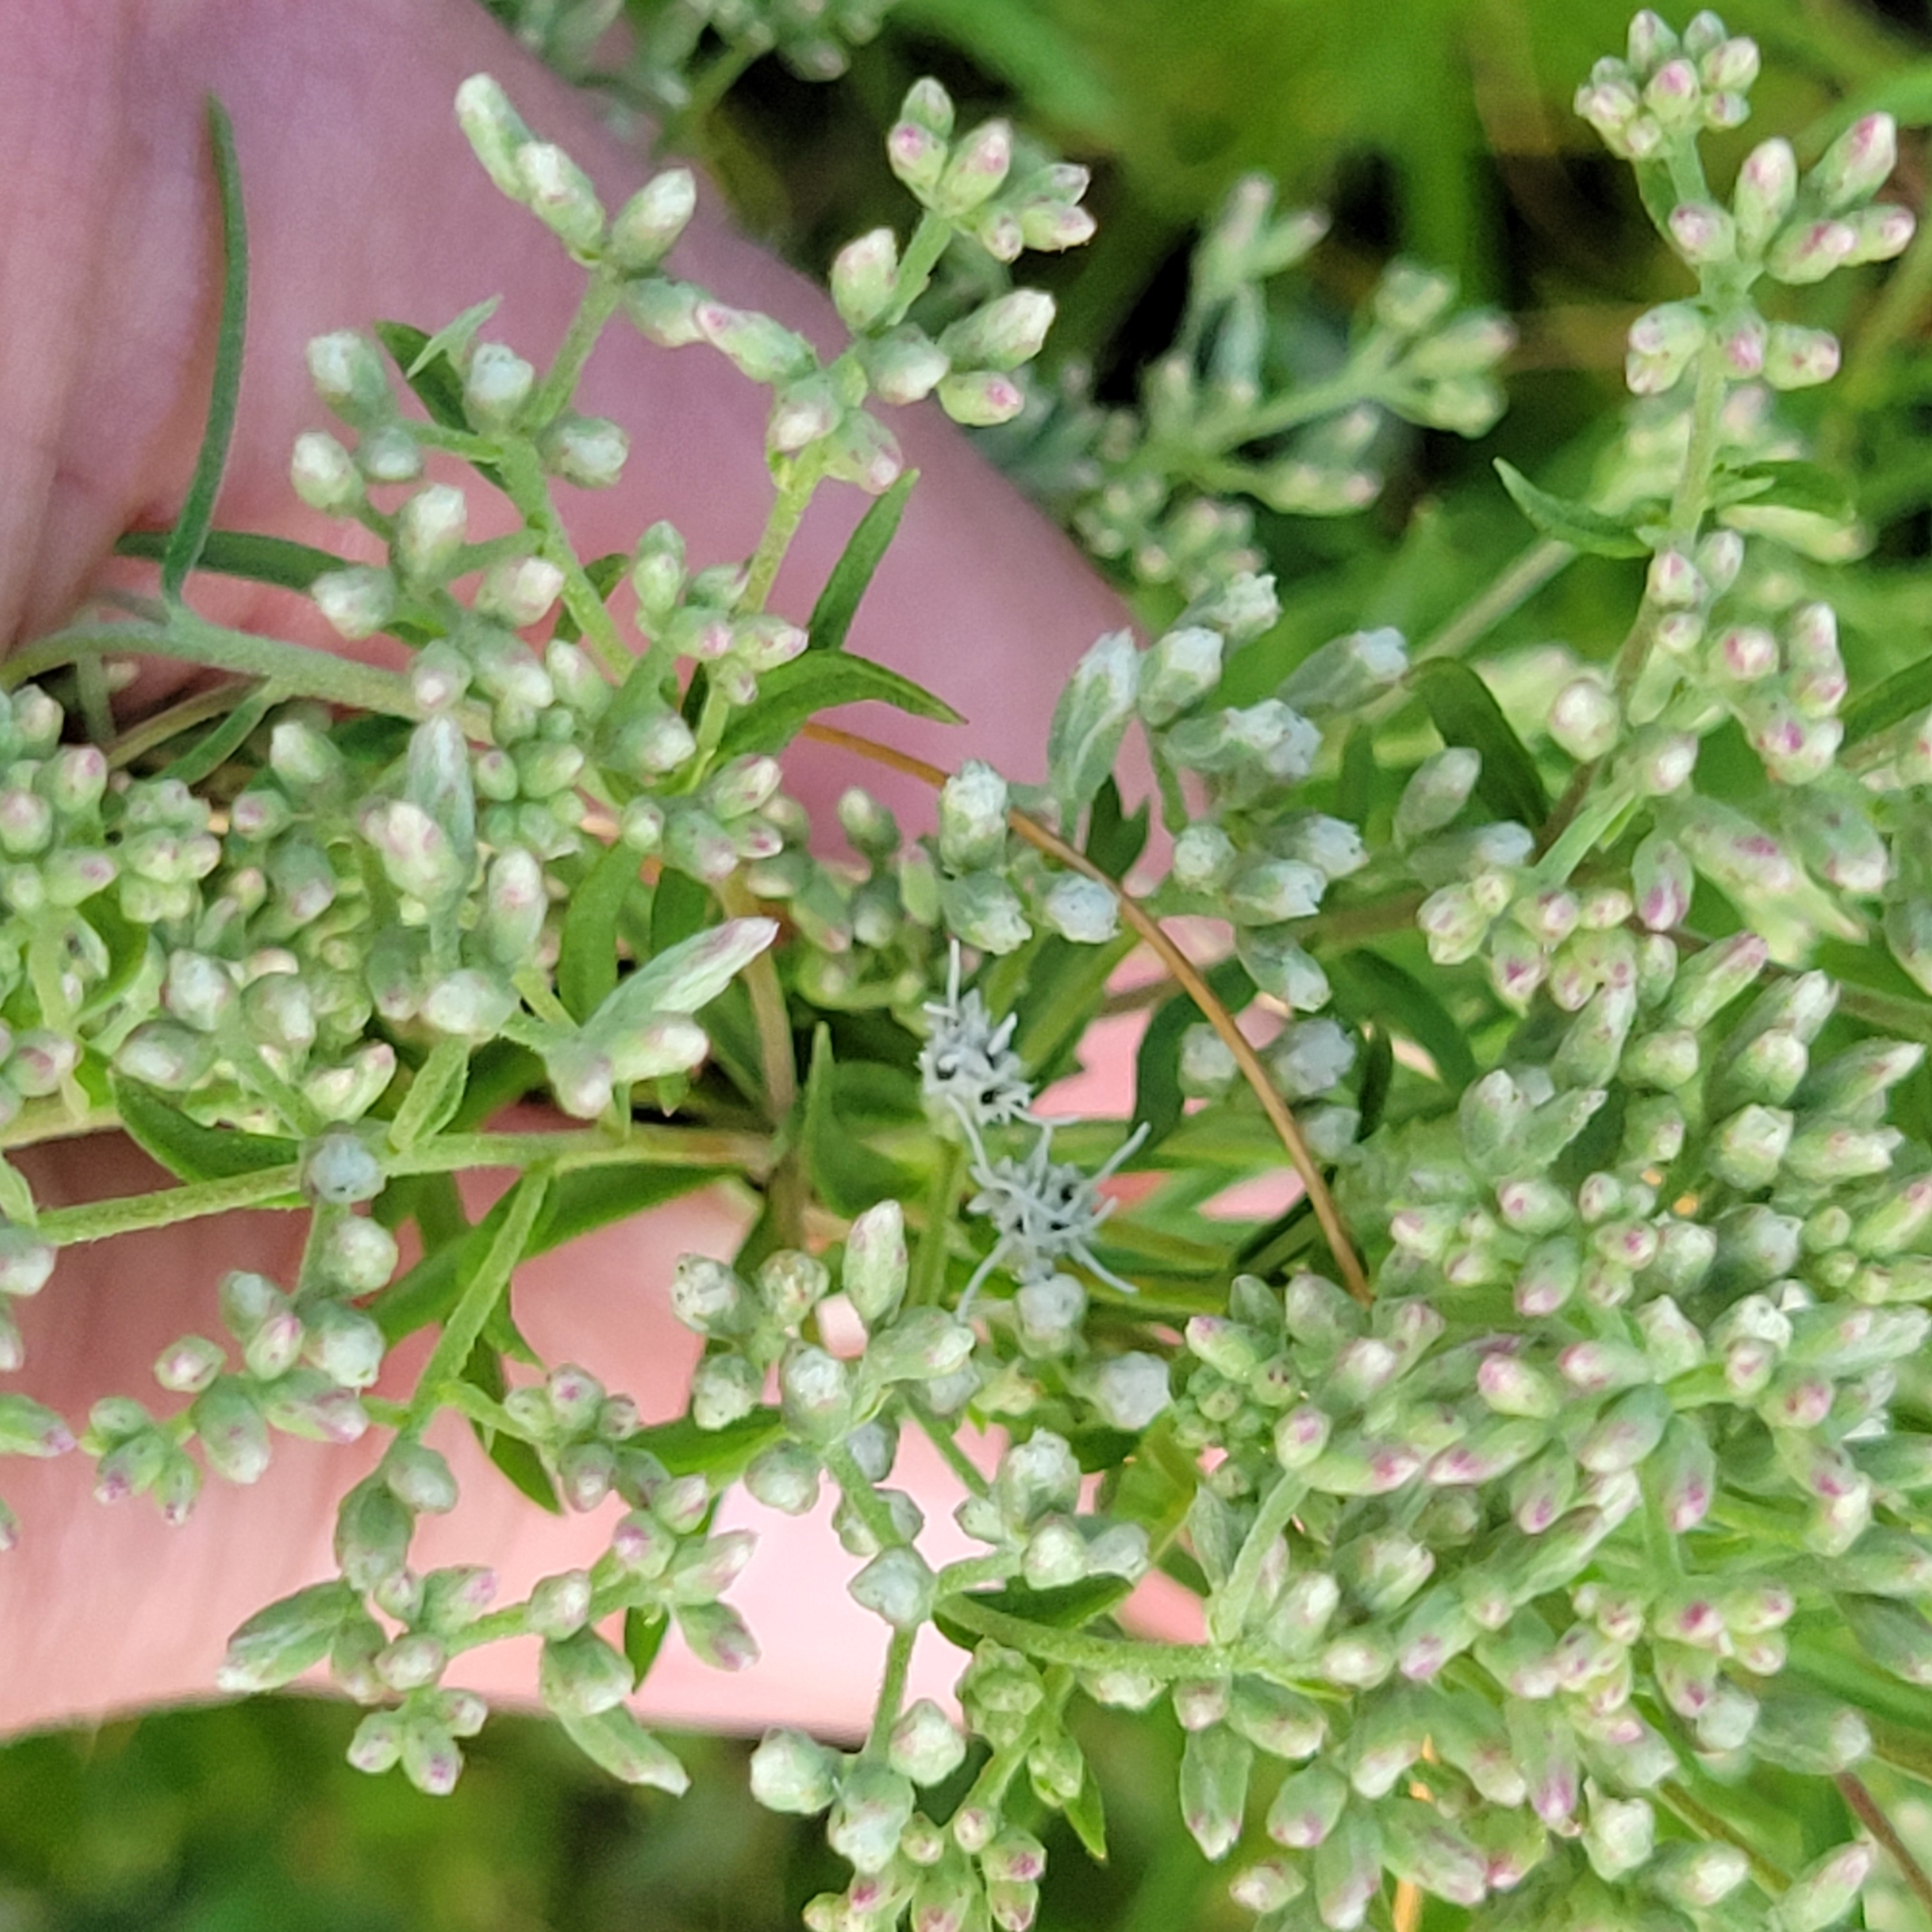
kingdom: Plantae
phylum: Tracheophyta
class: Magnoliopsida
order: Asterales
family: Asteraceae
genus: Eupatorium
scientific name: Eupatorium hyssopifolium
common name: Hyssop-leaf thoroughwort
